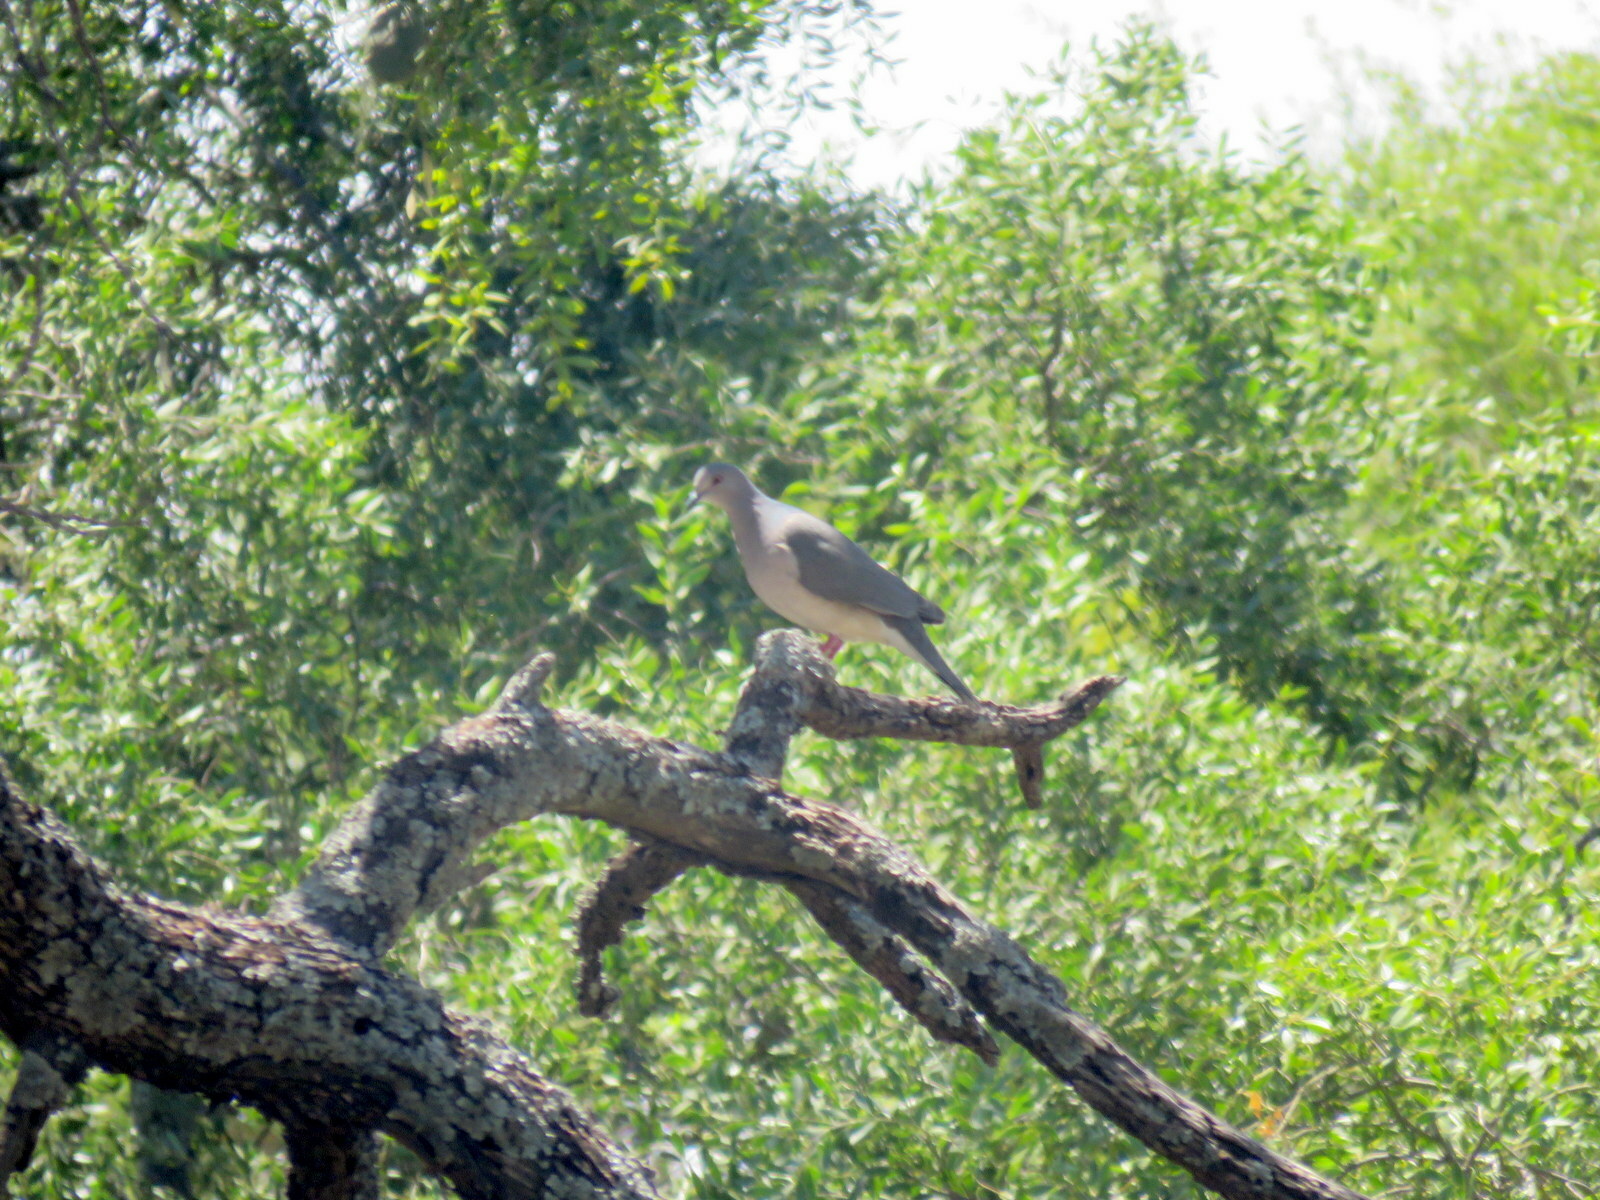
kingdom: Animalia
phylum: Chordata
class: Aves
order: Columbiformes
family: Columbidae
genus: Leptotila
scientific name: Leptotila verreauxi
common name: White-tipped dove
